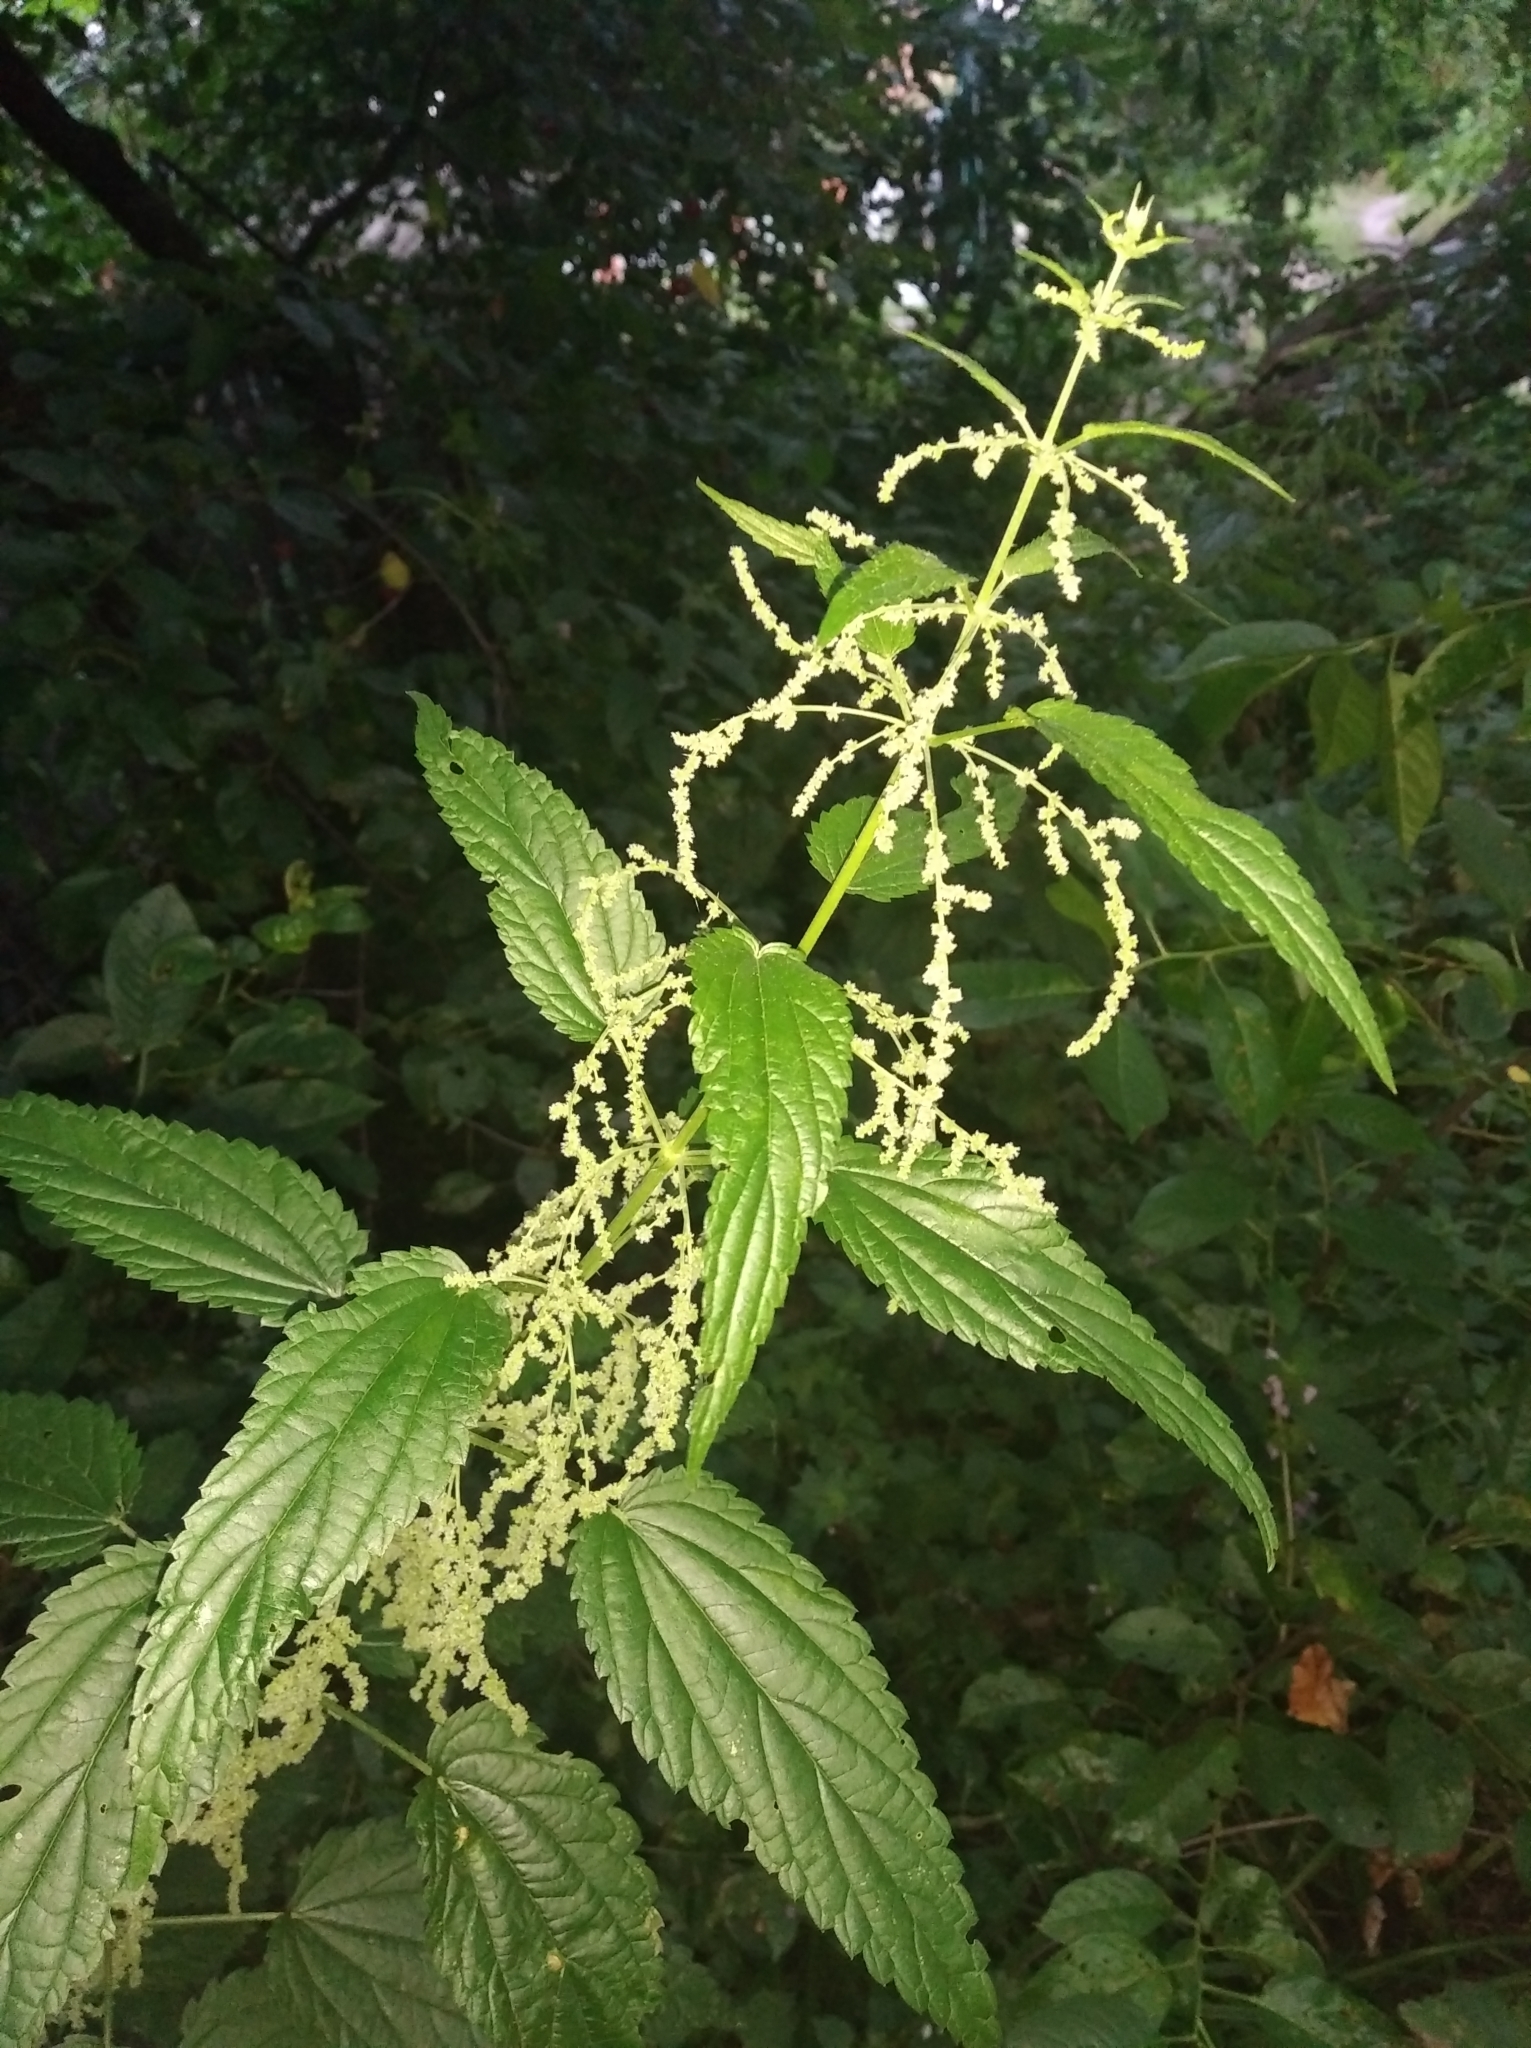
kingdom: Plantae
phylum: Tracheophyta
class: Magnoliopsida
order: Rosales
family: Urticaceae
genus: Urtica
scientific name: Urtica dioica
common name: Common nettle
